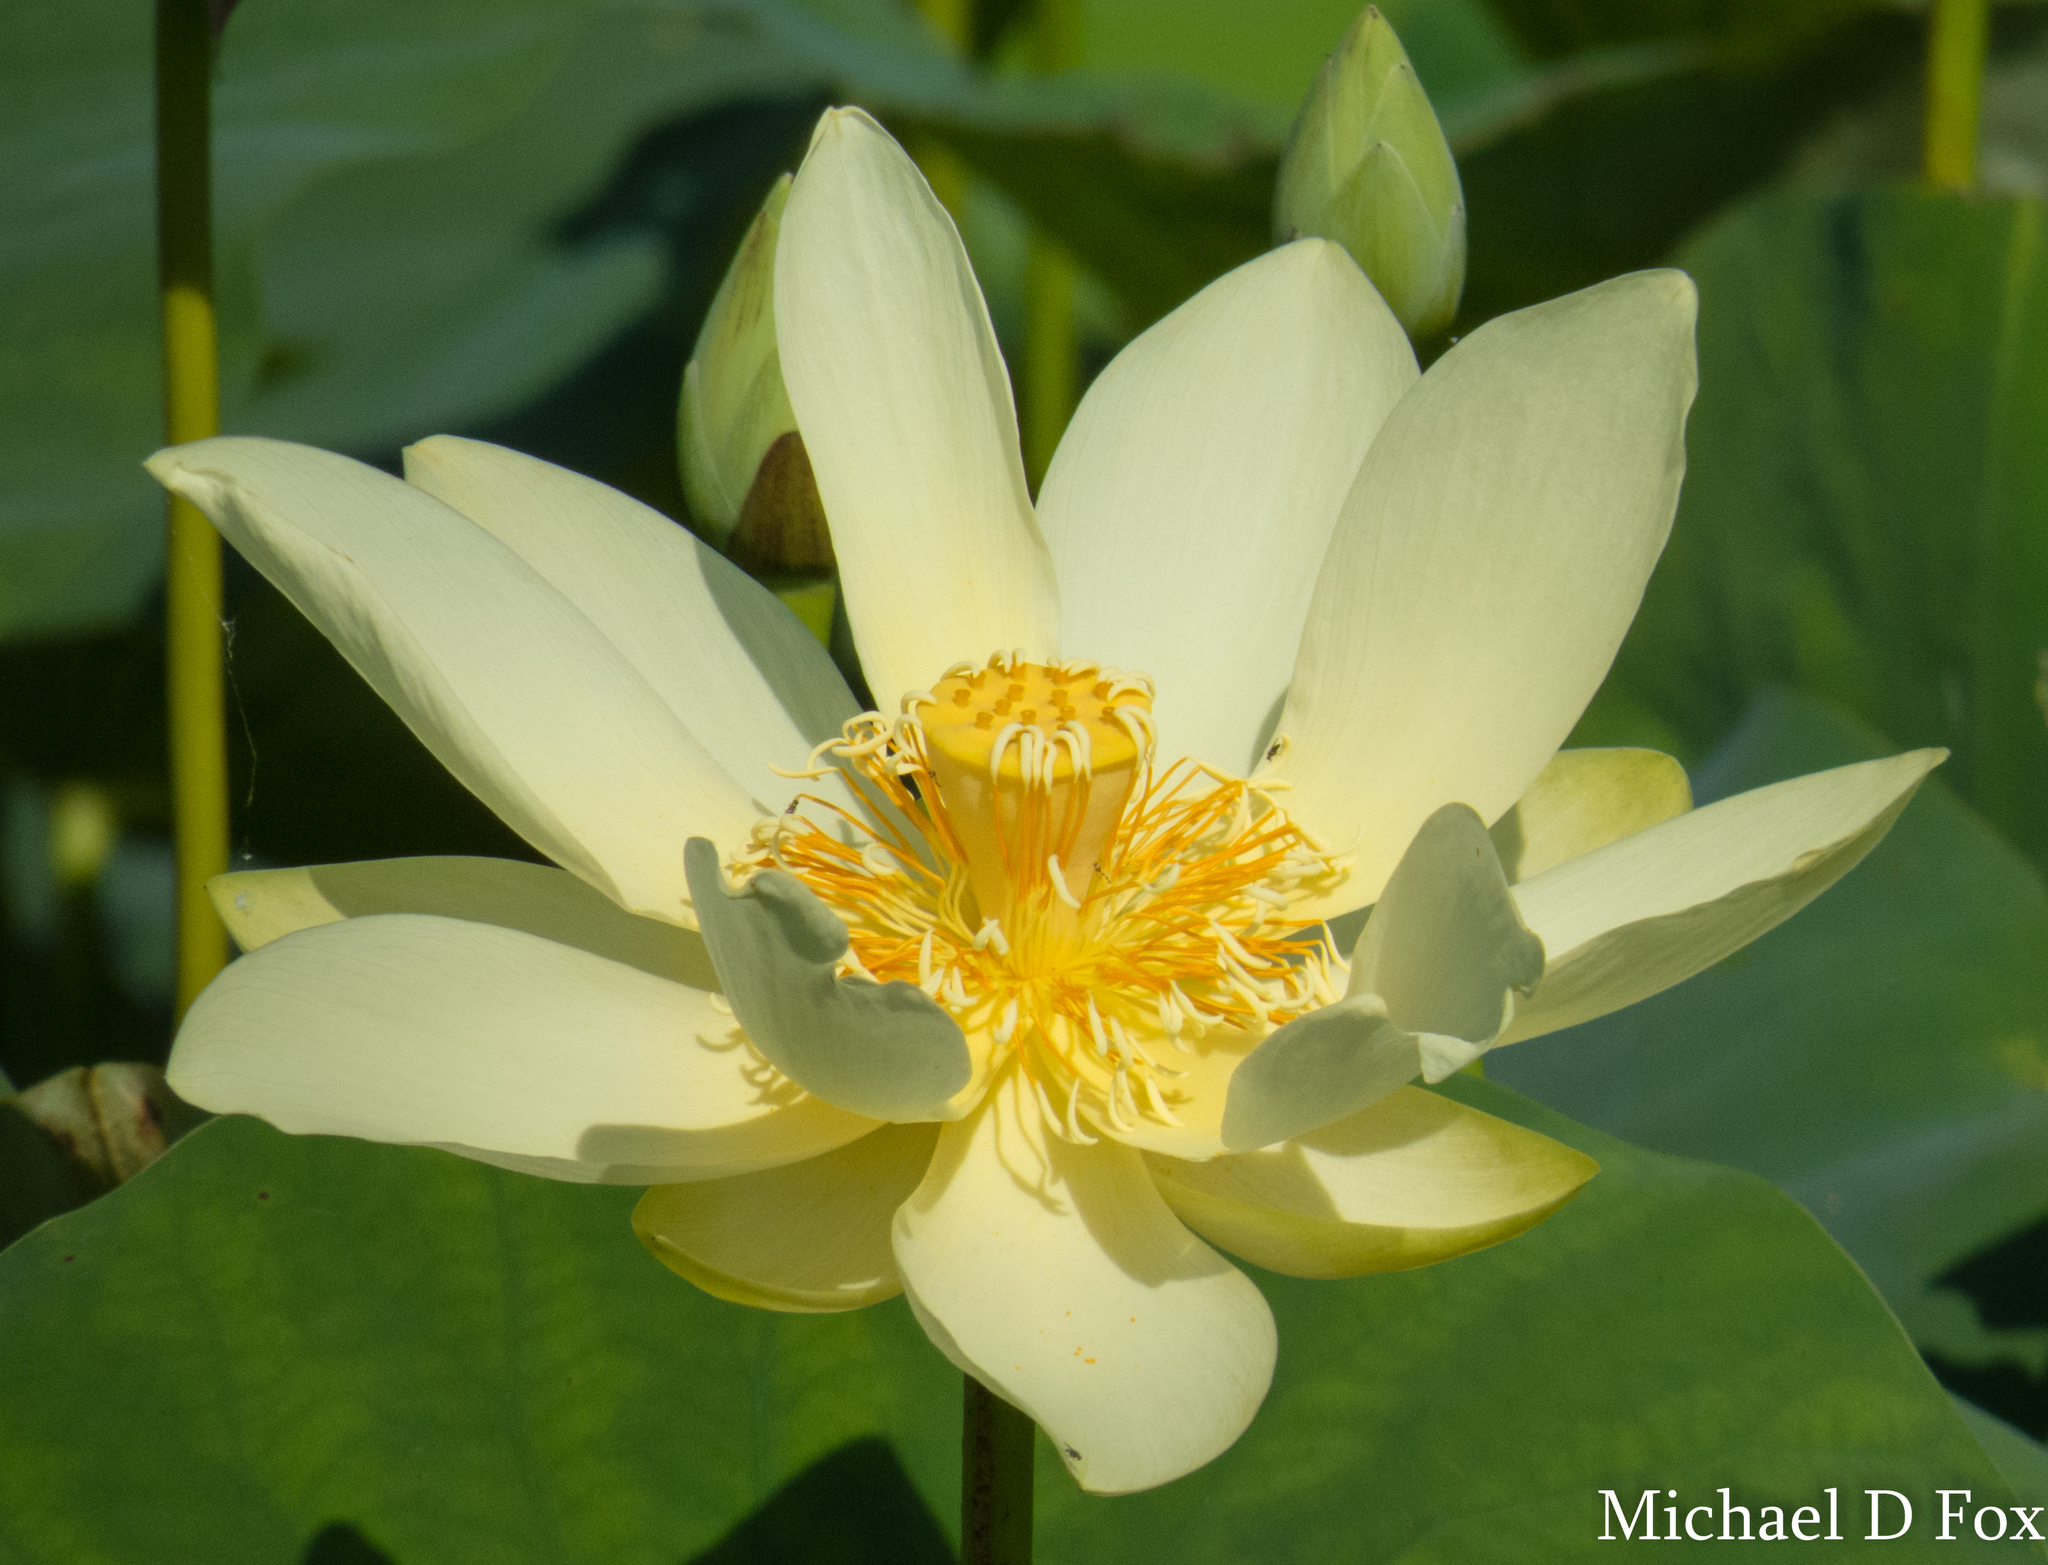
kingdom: Plantae
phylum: Tracheophyta
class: Magnoliopsida
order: Proteales
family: Nelumbonaceae
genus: Nelumbo
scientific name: Nelumbo lutea
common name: American lotus
